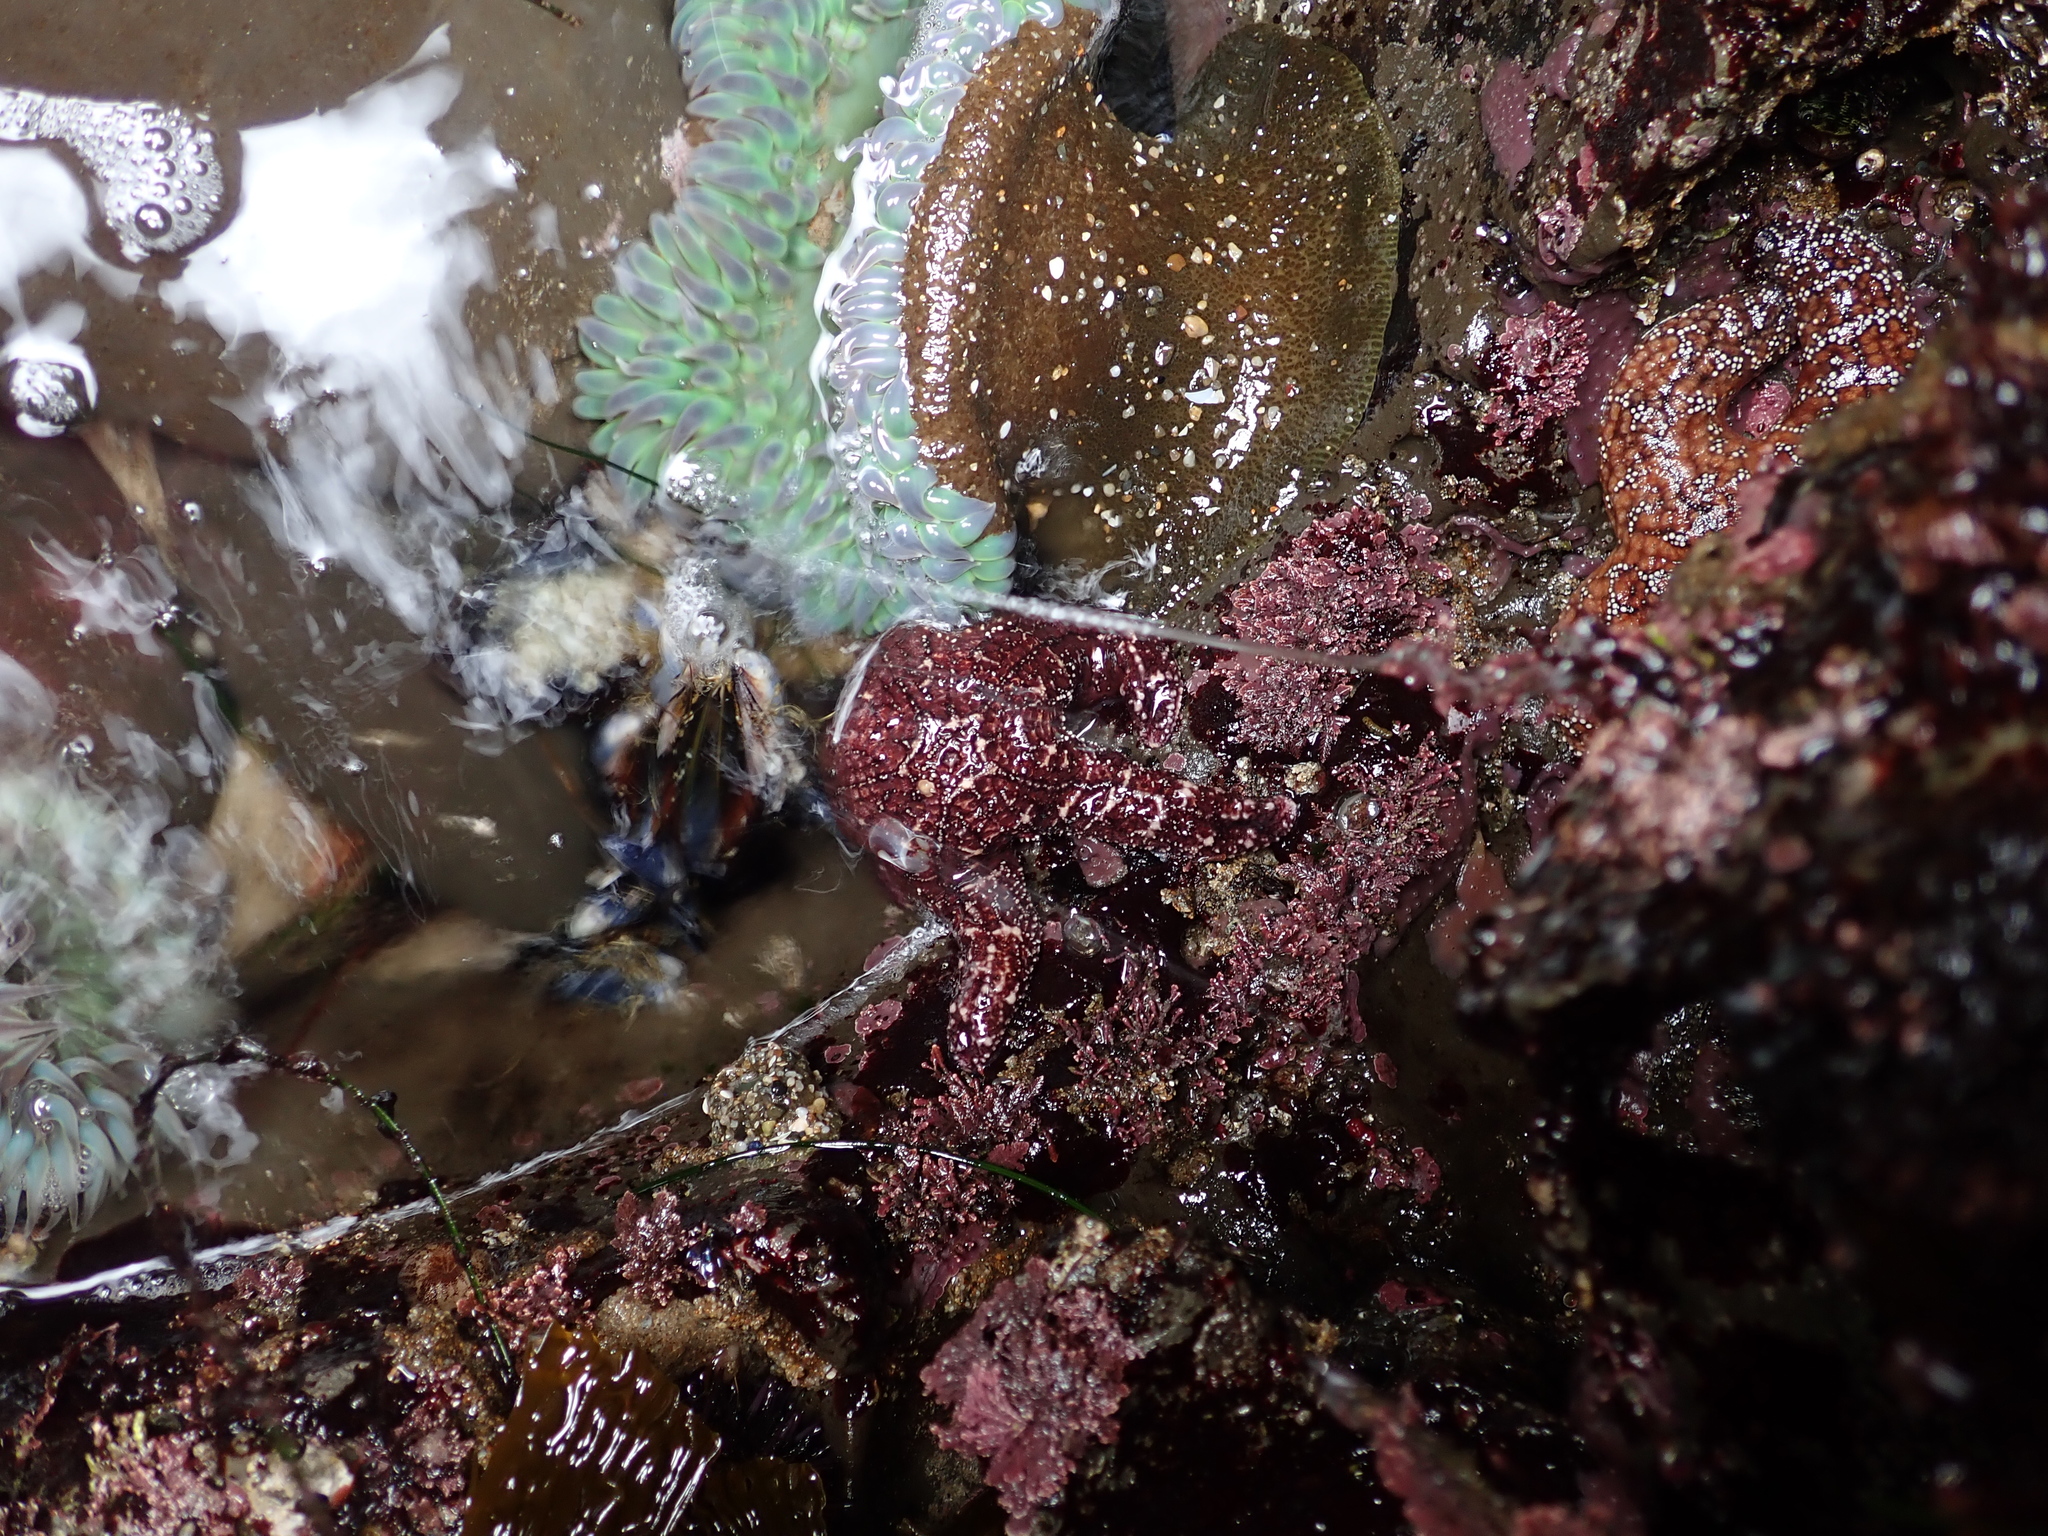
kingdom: Animalia
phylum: Echinodermata
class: Asteroidea
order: Forcipulatida
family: Asteriidae
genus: Pisaster
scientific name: Pisaster ochraceus
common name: Ochre stars
